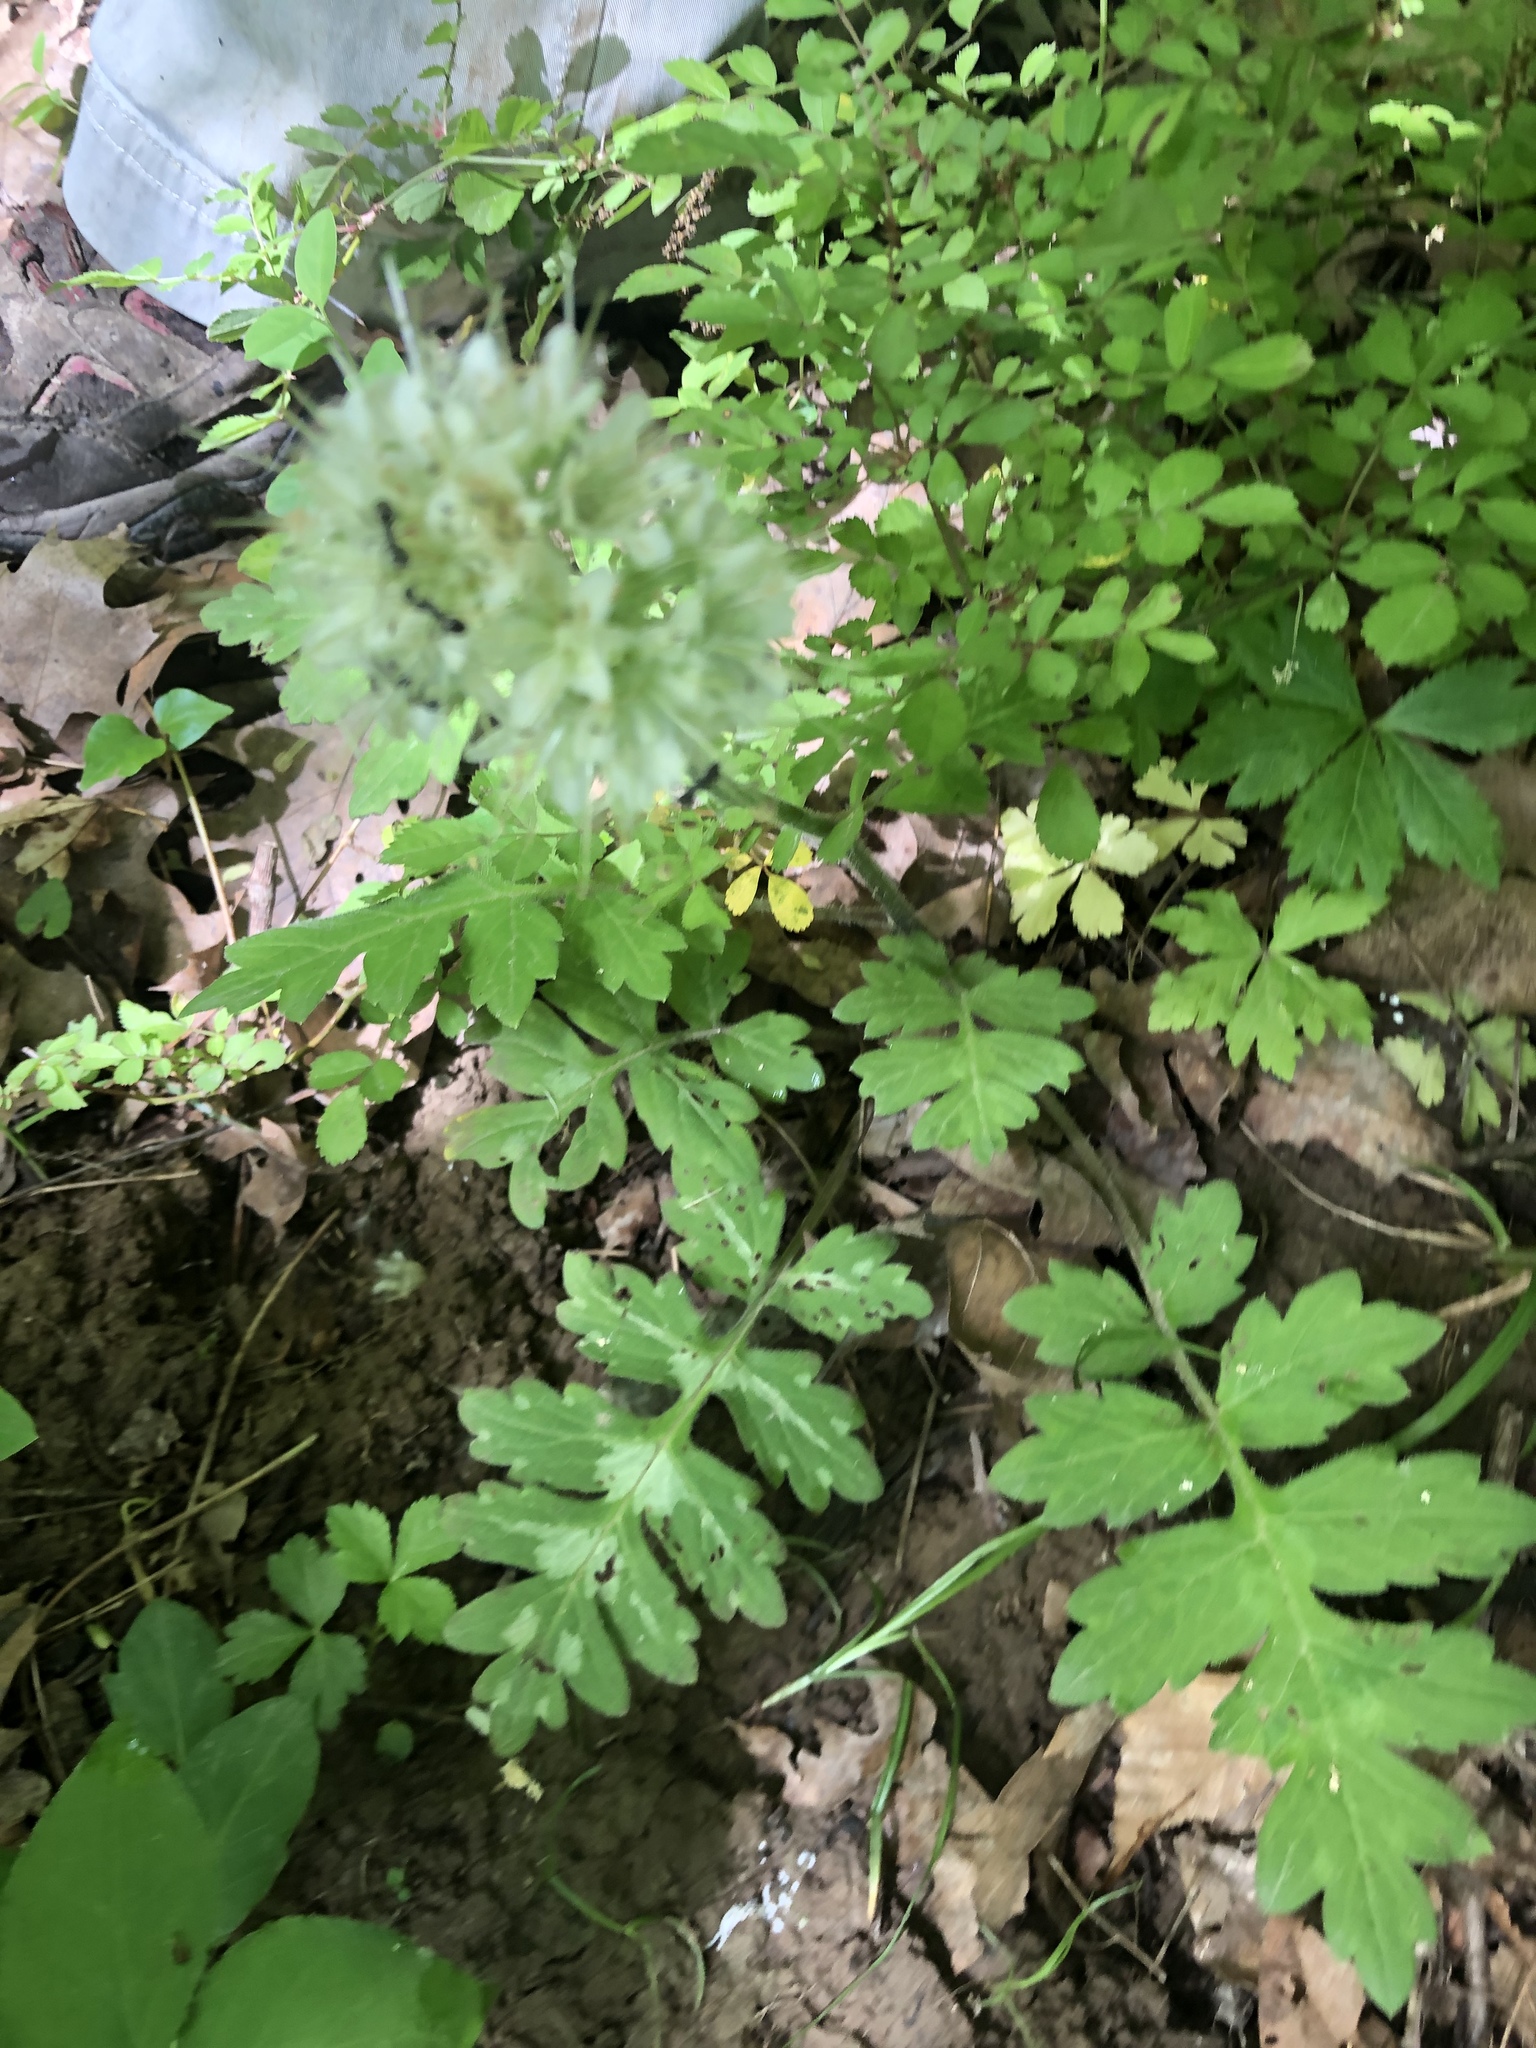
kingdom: Plantae
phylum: Tracheophyta
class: Magnoliopsida
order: Boraginales
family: Hydrophyllaceae
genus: Hydrophyllum
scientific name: Hydrophyllum macrophyllum
